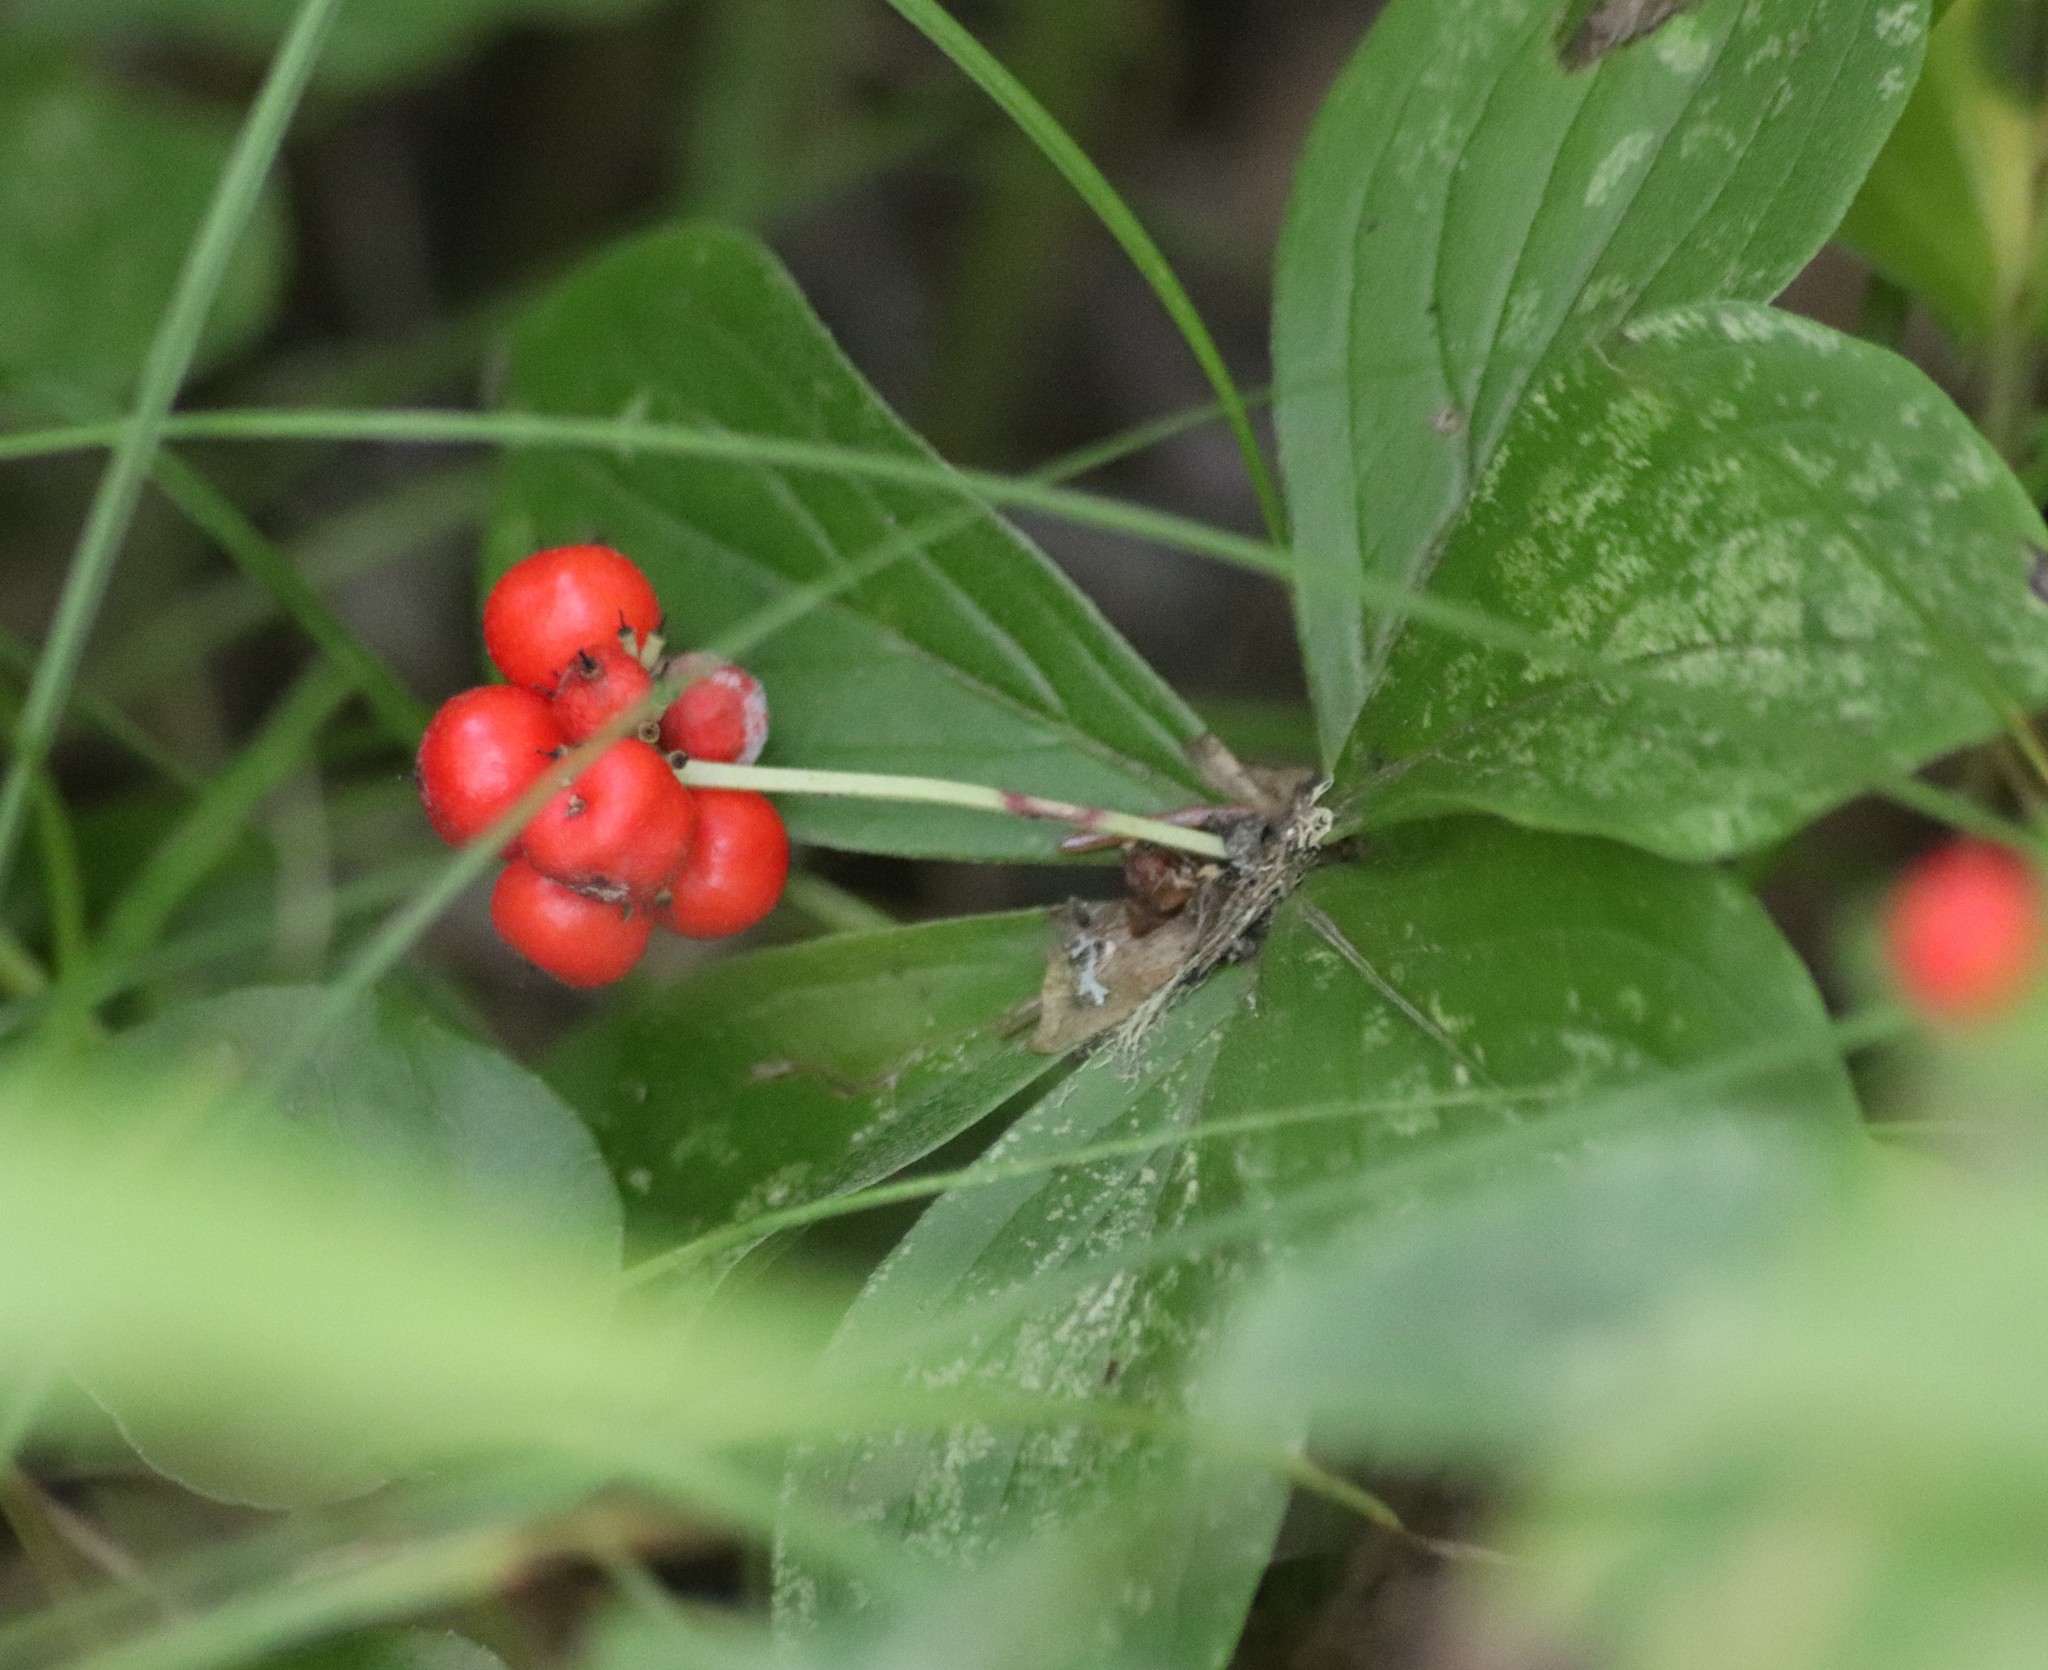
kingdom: Plantae
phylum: Tracheophyta
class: Magnoliopsida
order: Cornales
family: Cornaceae
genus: Cornus
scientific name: Cornus canadensis
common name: Creeping dogwood
